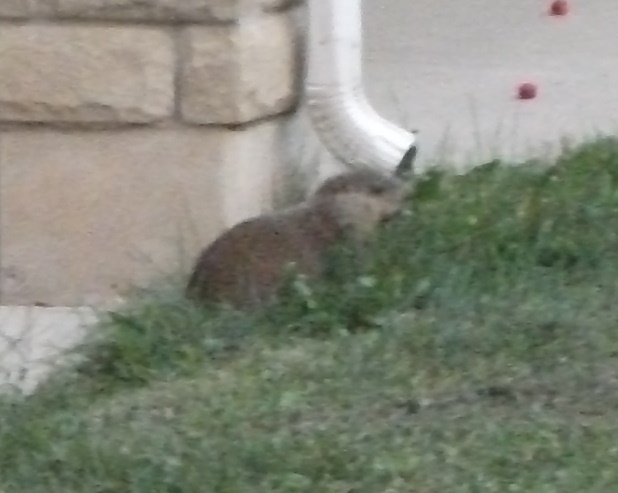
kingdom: Animalia
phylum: Chordata
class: Mammalia
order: Rodentia
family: Sciuridae
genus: Marmota
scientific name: Marmota monax
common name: Groundhog
